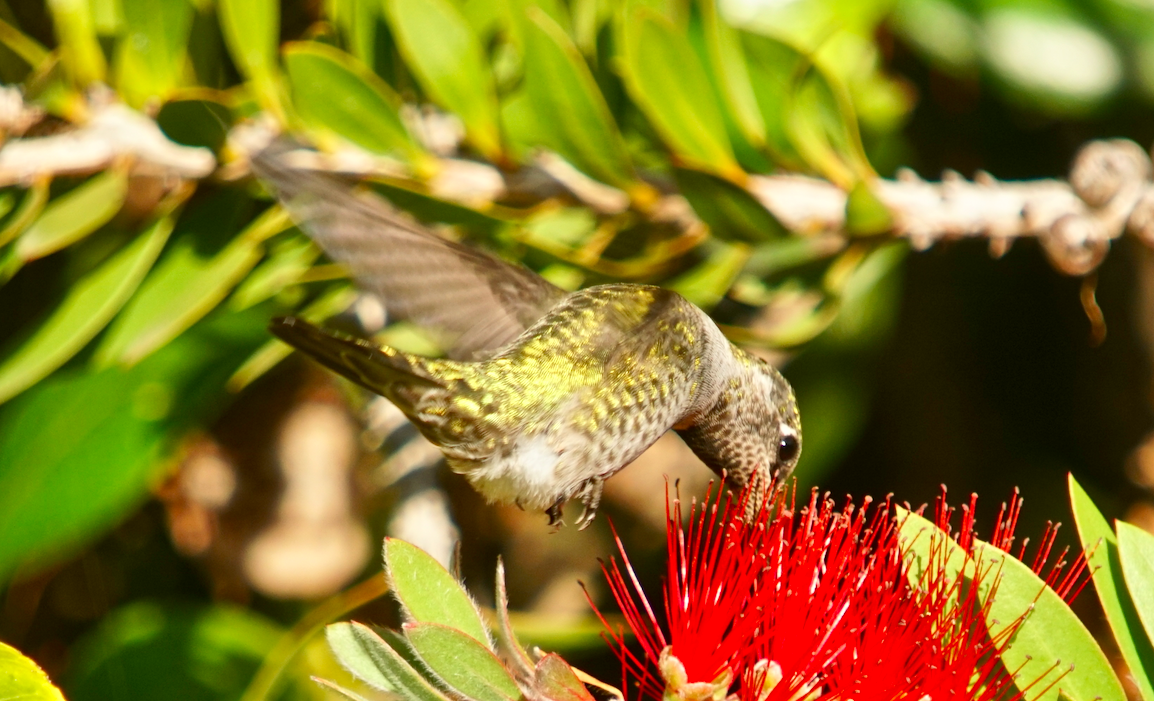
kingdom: Animalia
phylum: Chordata
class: Aves
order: Apodiformes
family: Trochilidae
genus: Calypte
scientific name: Calypte anna
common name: Anna's hummingbird
